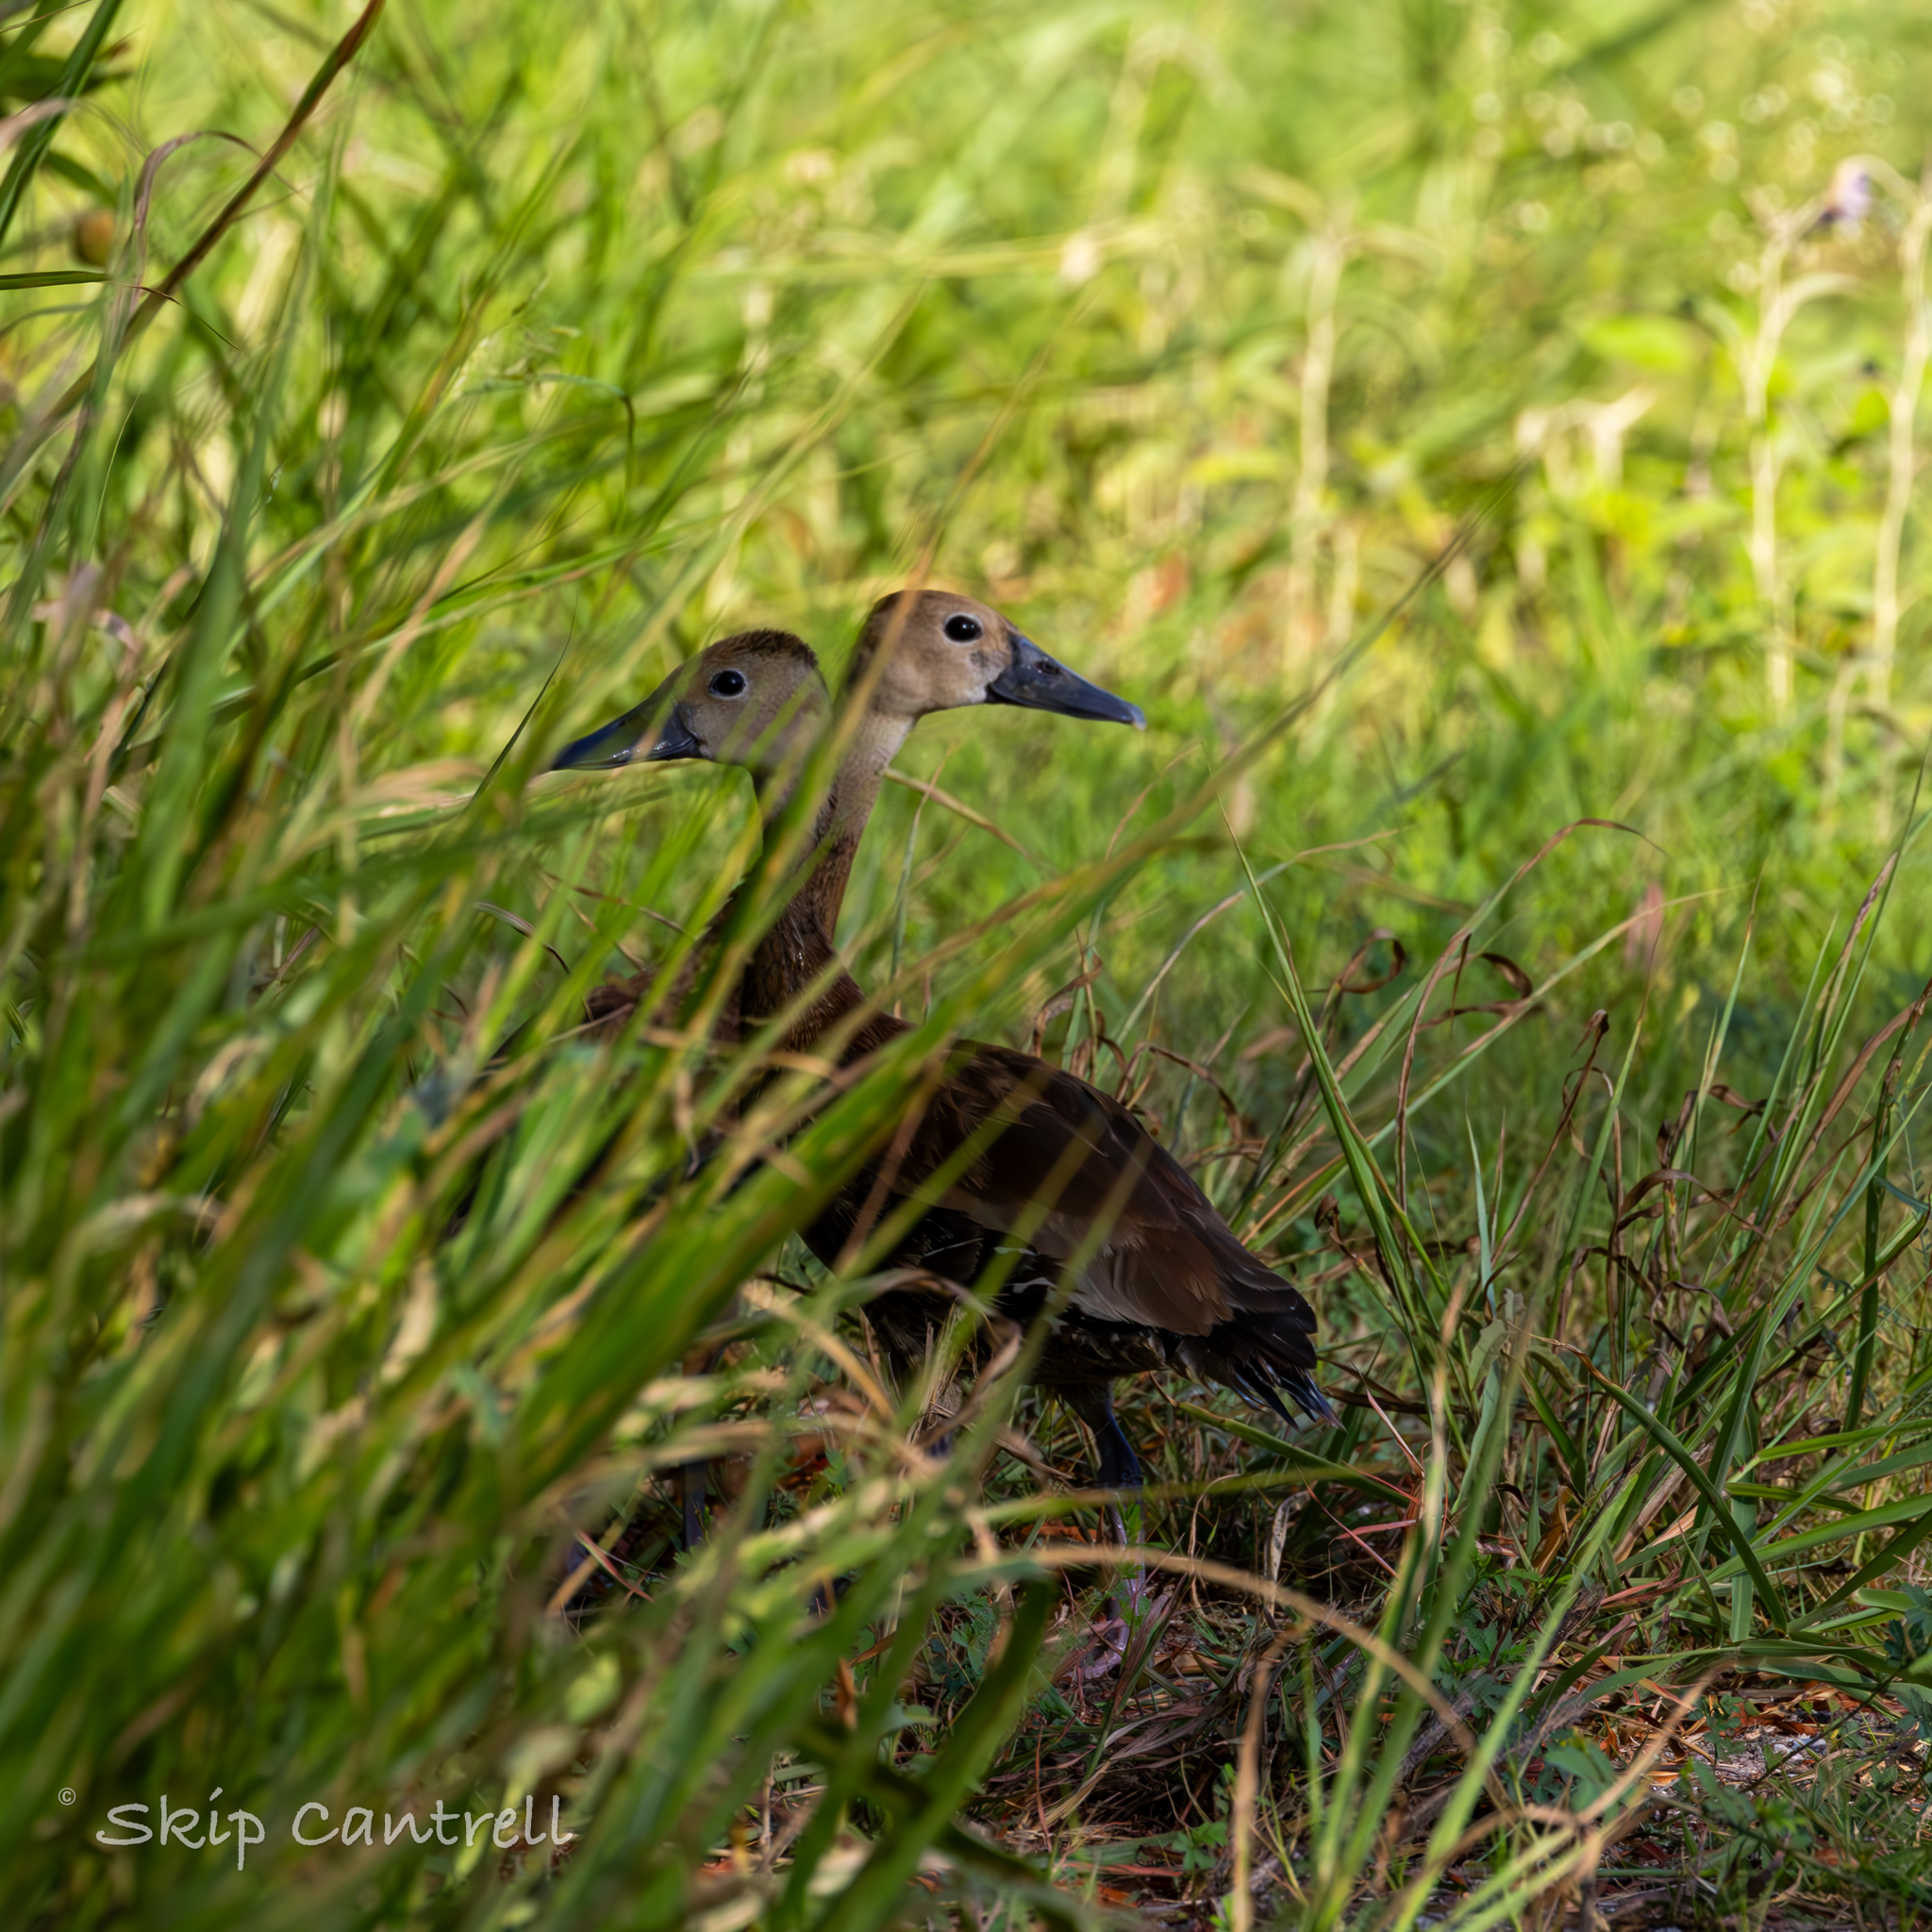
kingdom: Animalia
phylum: Chordata
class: Aves
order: Anseriformes
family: Anatidae
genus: Dendrocygna
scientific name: Dendrocygna autumnalis
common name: Black-bellied whistling duck
